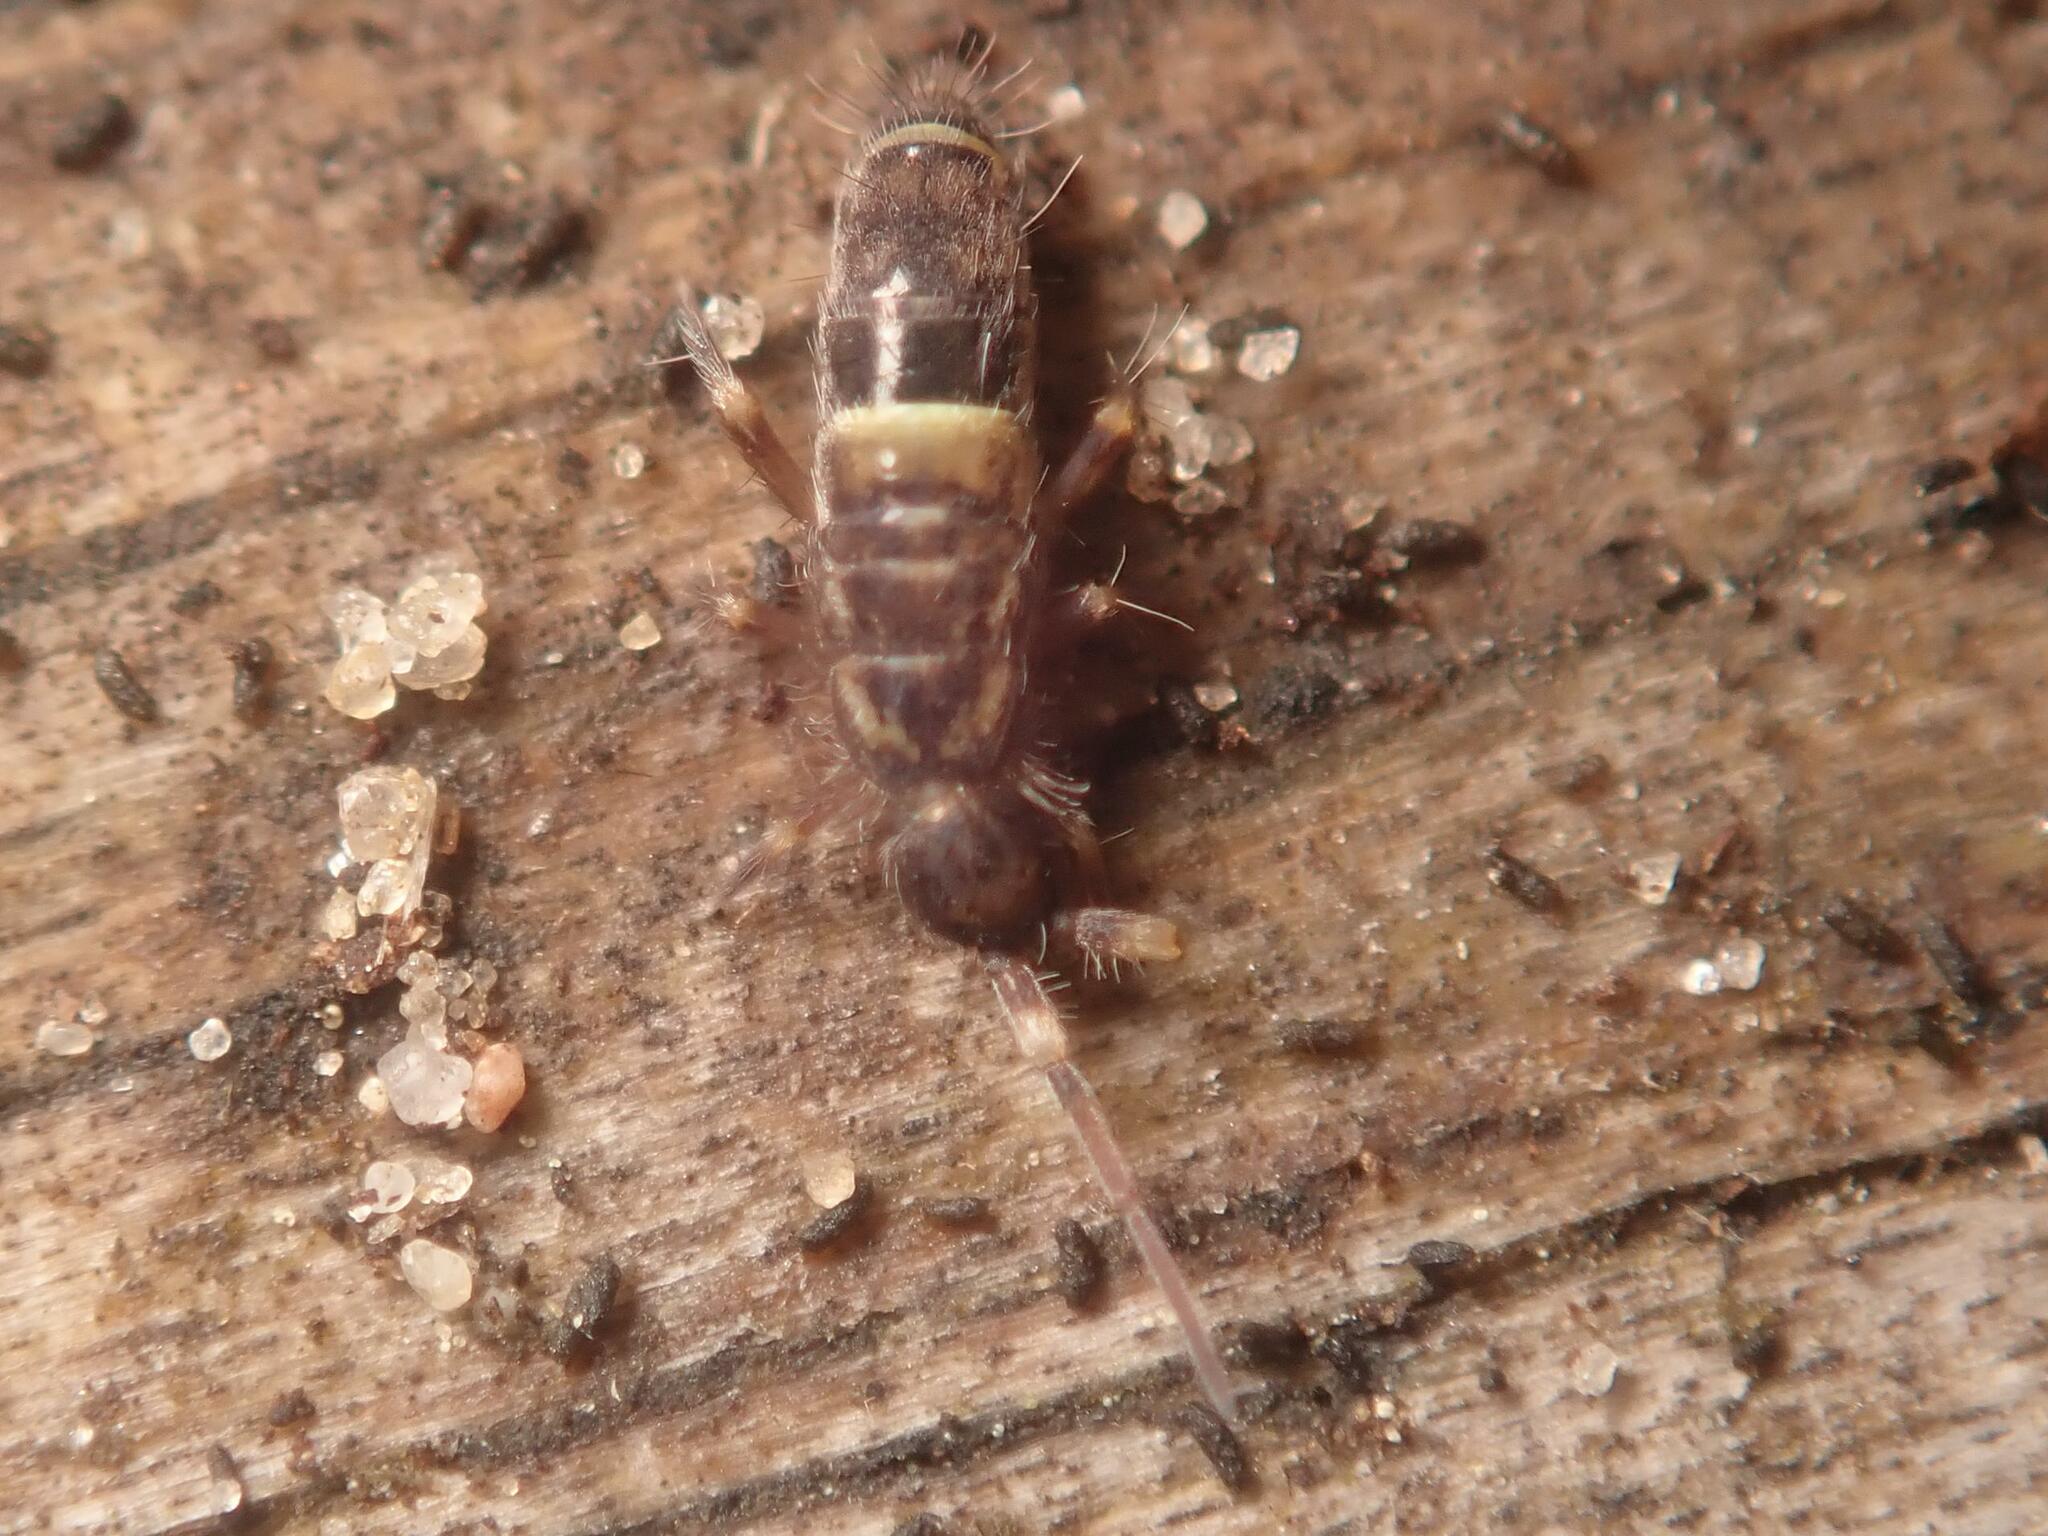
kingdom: Animalia
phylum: Arthropoda
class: Collembola
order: Entomobryomorpha
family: Orchesellidae
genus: Orchesella
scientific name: Orchesella cincta
